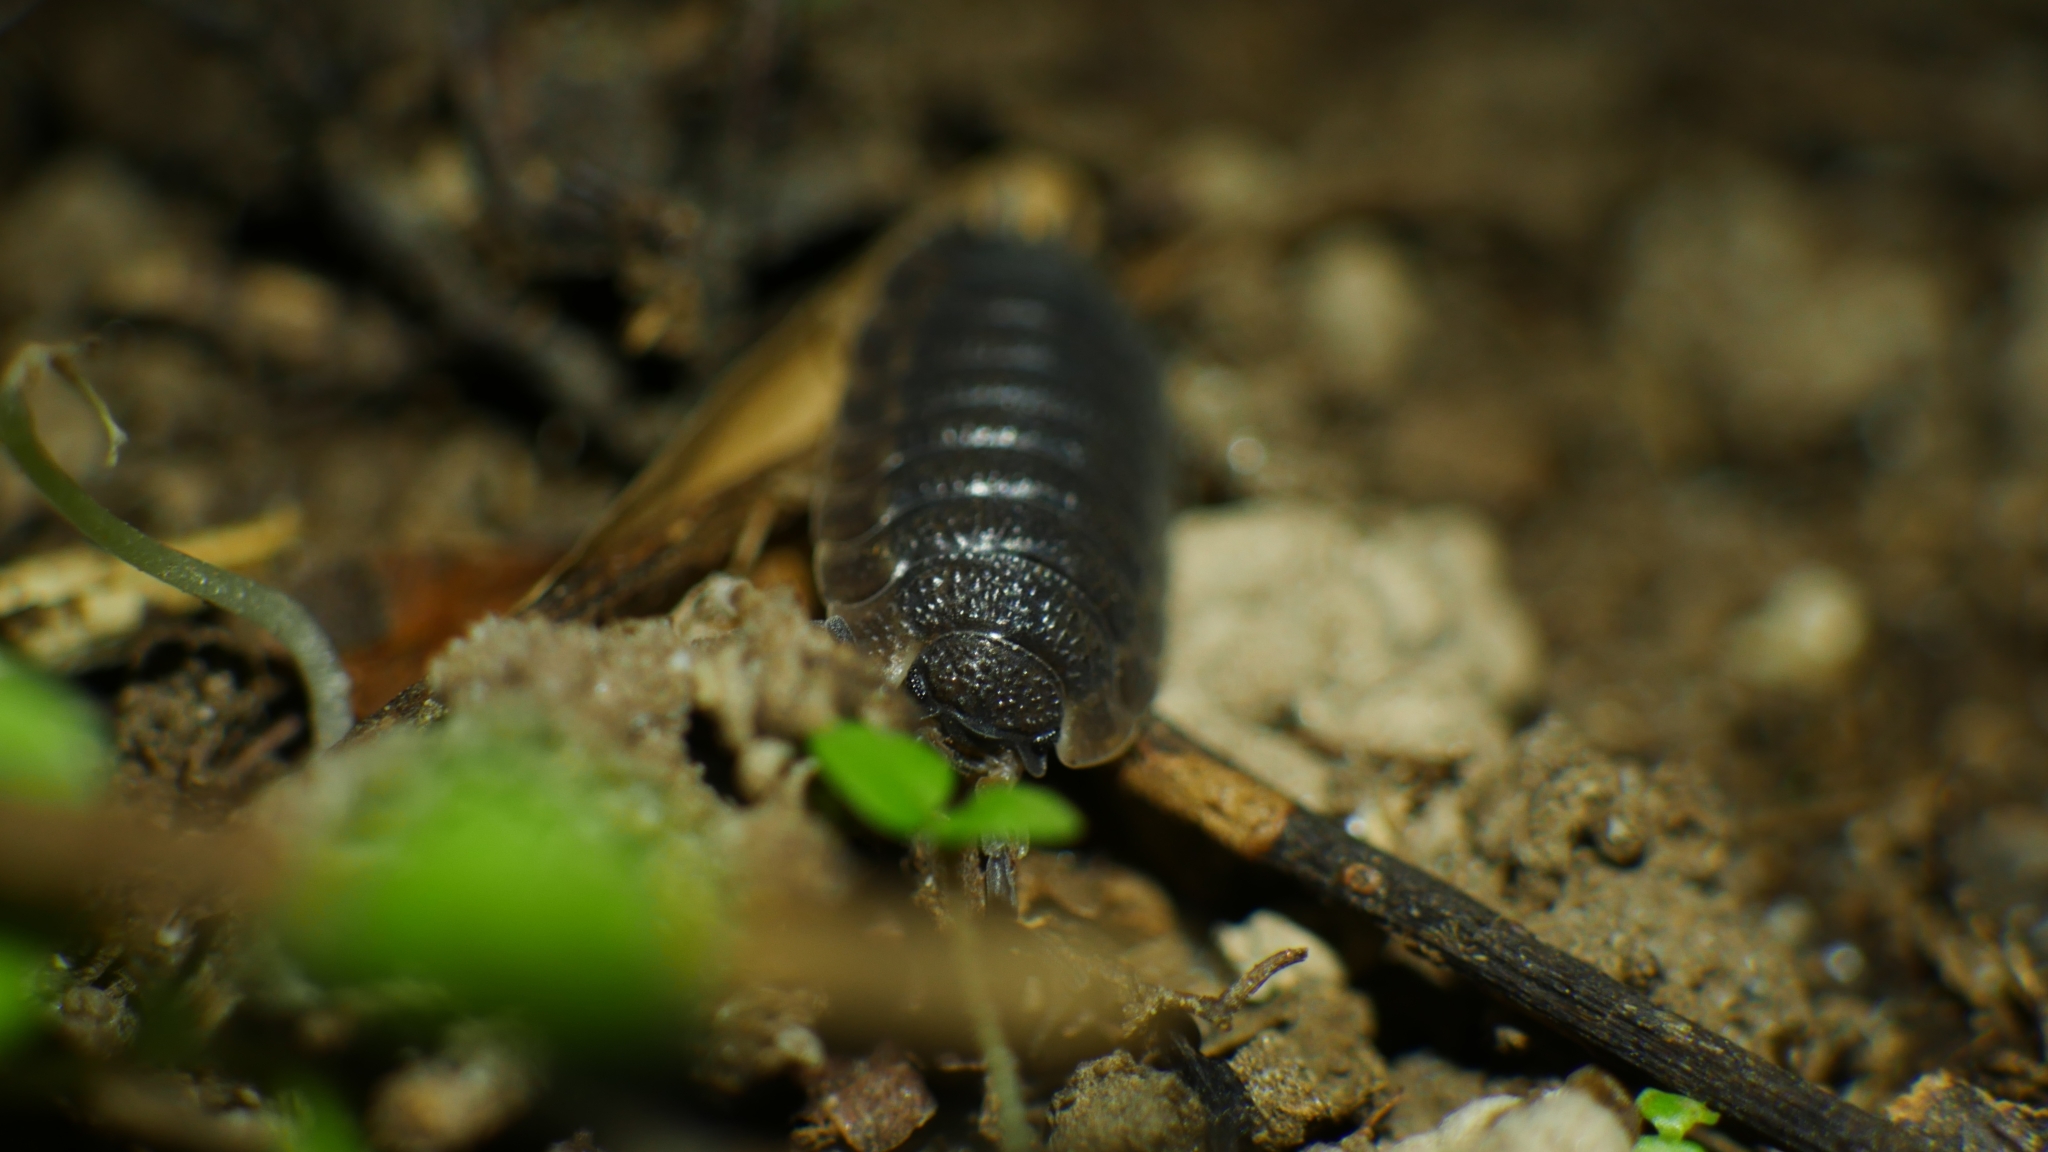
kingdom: Animalia
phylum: Arthropoda
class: Malacostraca
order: Isopoda
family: Porcellionidae
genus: Porcellio
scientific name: Porcellio scaber
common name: Common rough woodlouse
